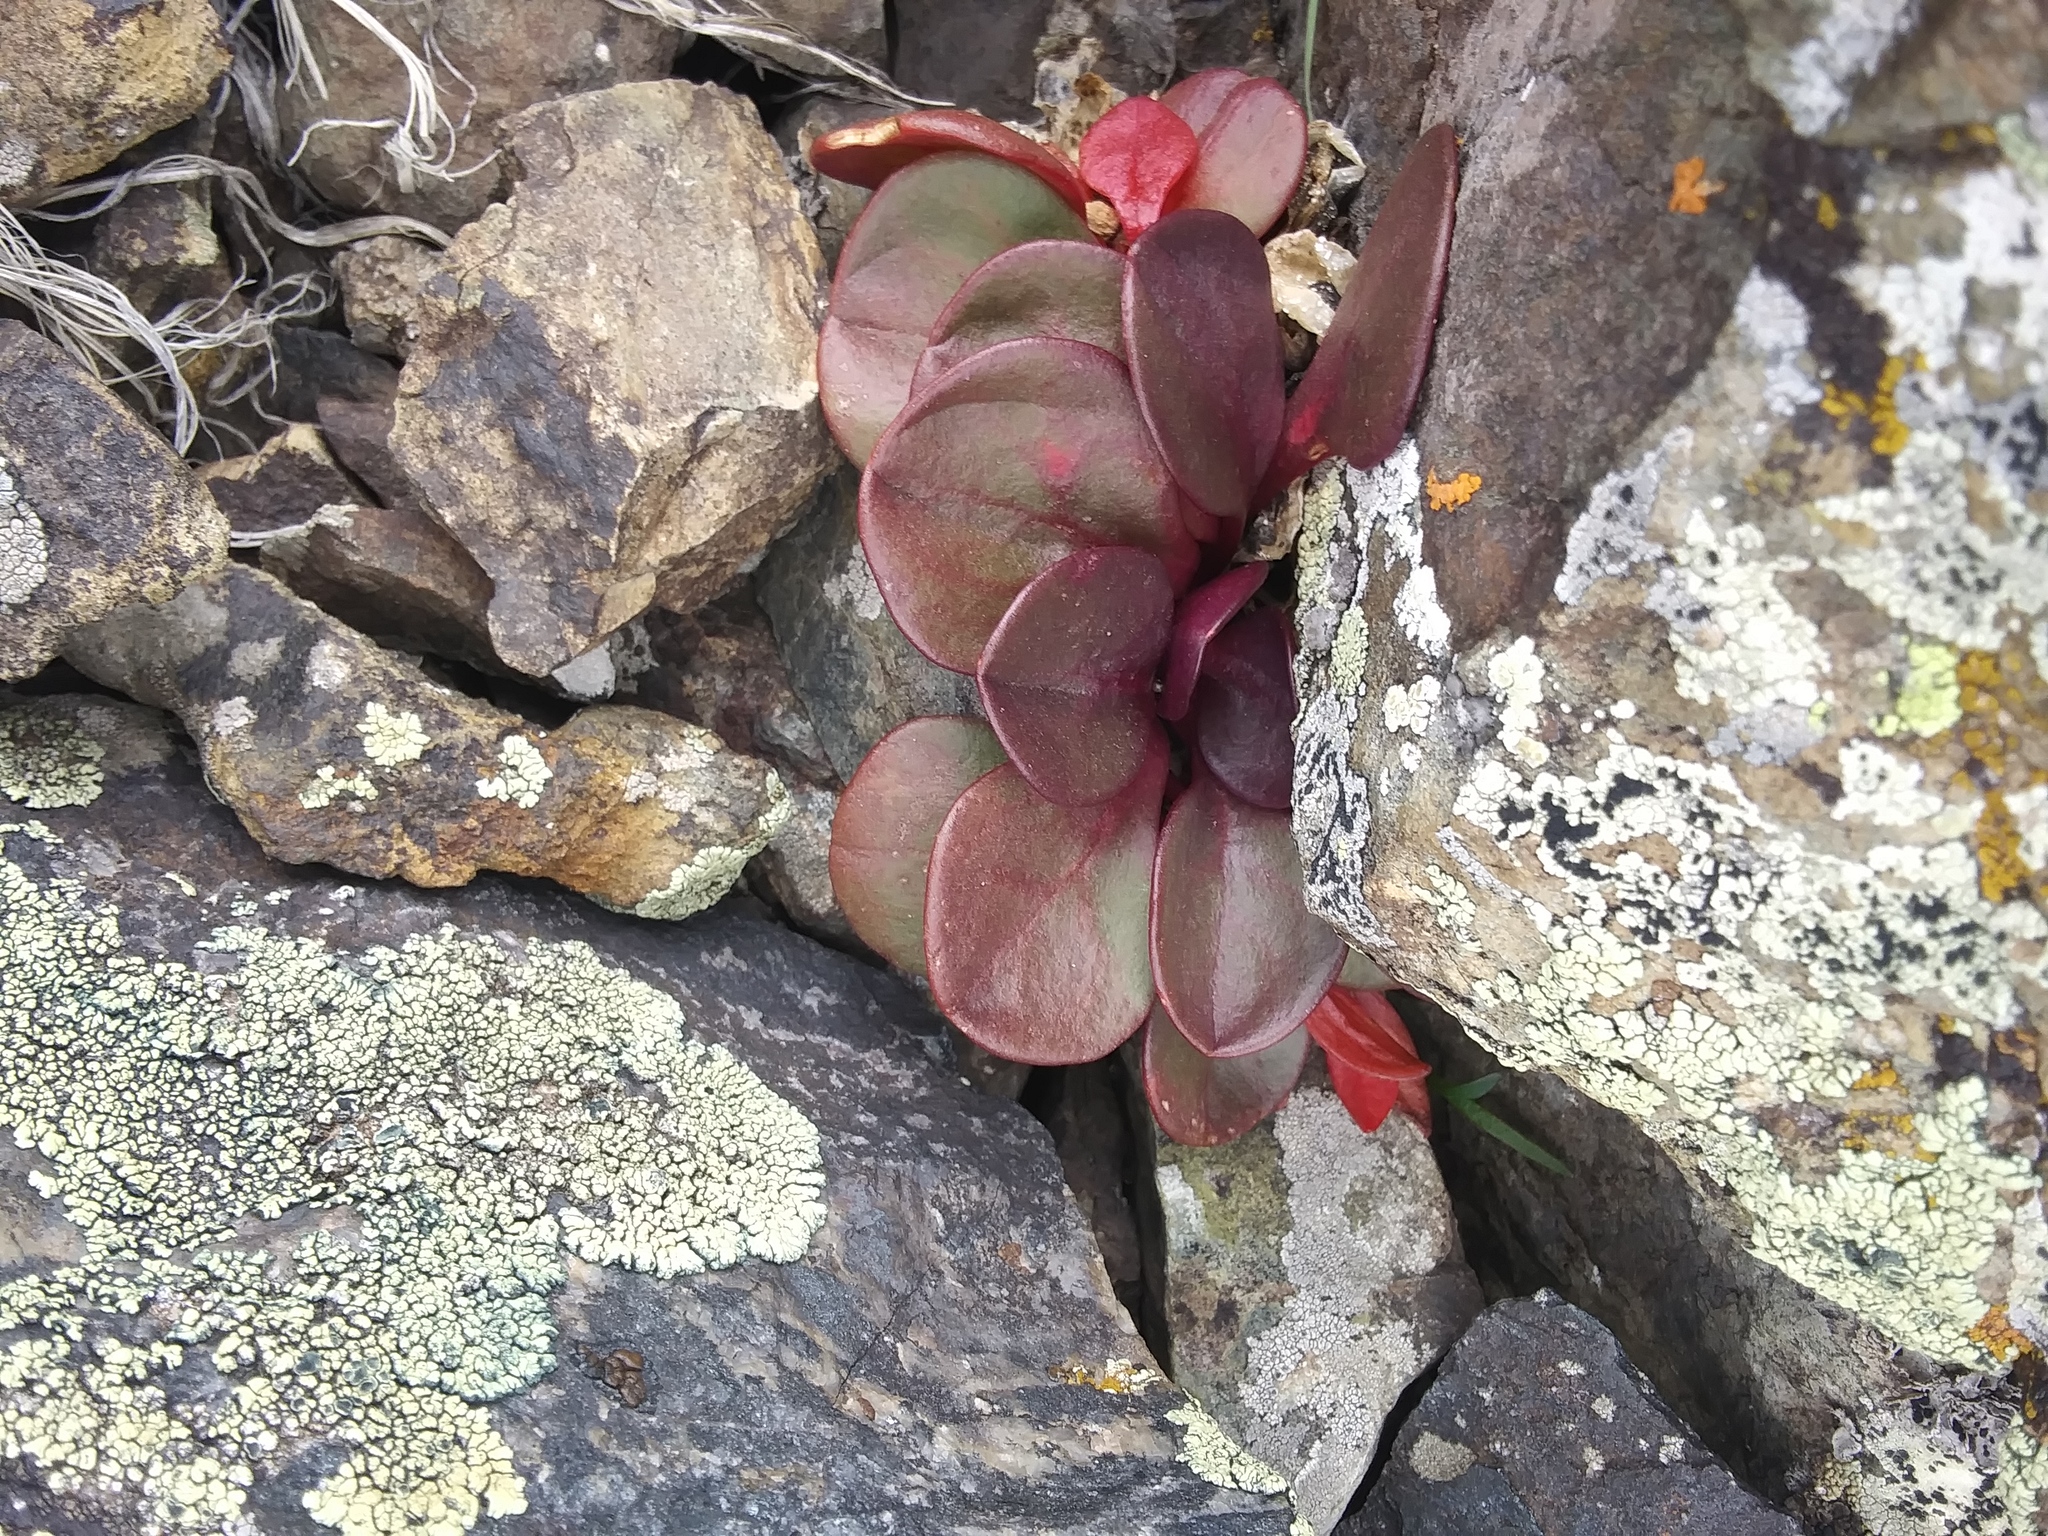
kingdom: Plantae
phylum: Tracheophyta
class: Magnoliopsida
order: Caryophyllales
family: Montiaceae
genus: Claytonia
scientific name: Claytonia megarhiza
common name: Alpine spring beauty
